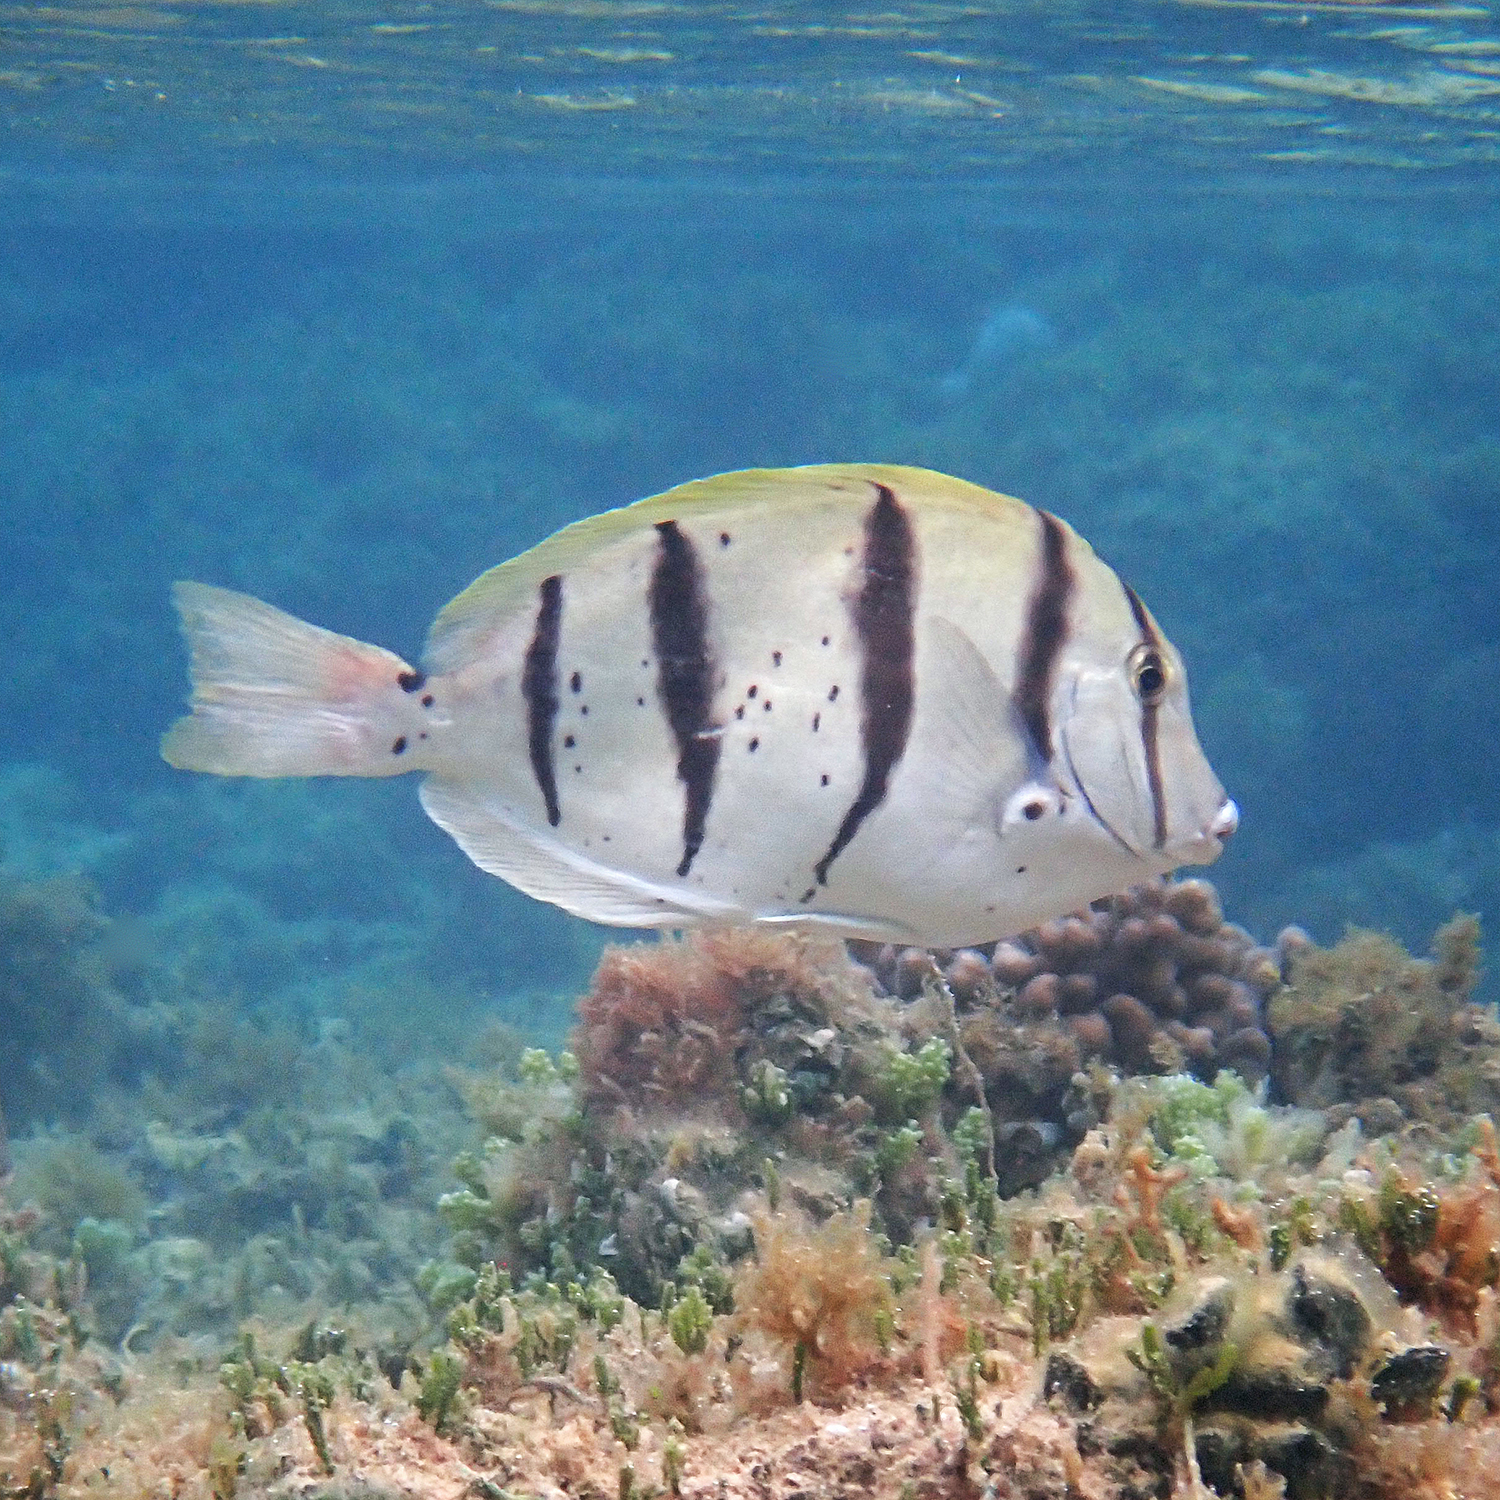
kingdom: Animalia
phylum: Chordata
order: Perciformes
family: Acanthuridae
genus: Acanthurus
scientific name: Acanthurus triostegus
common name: Convict surgeonfish
